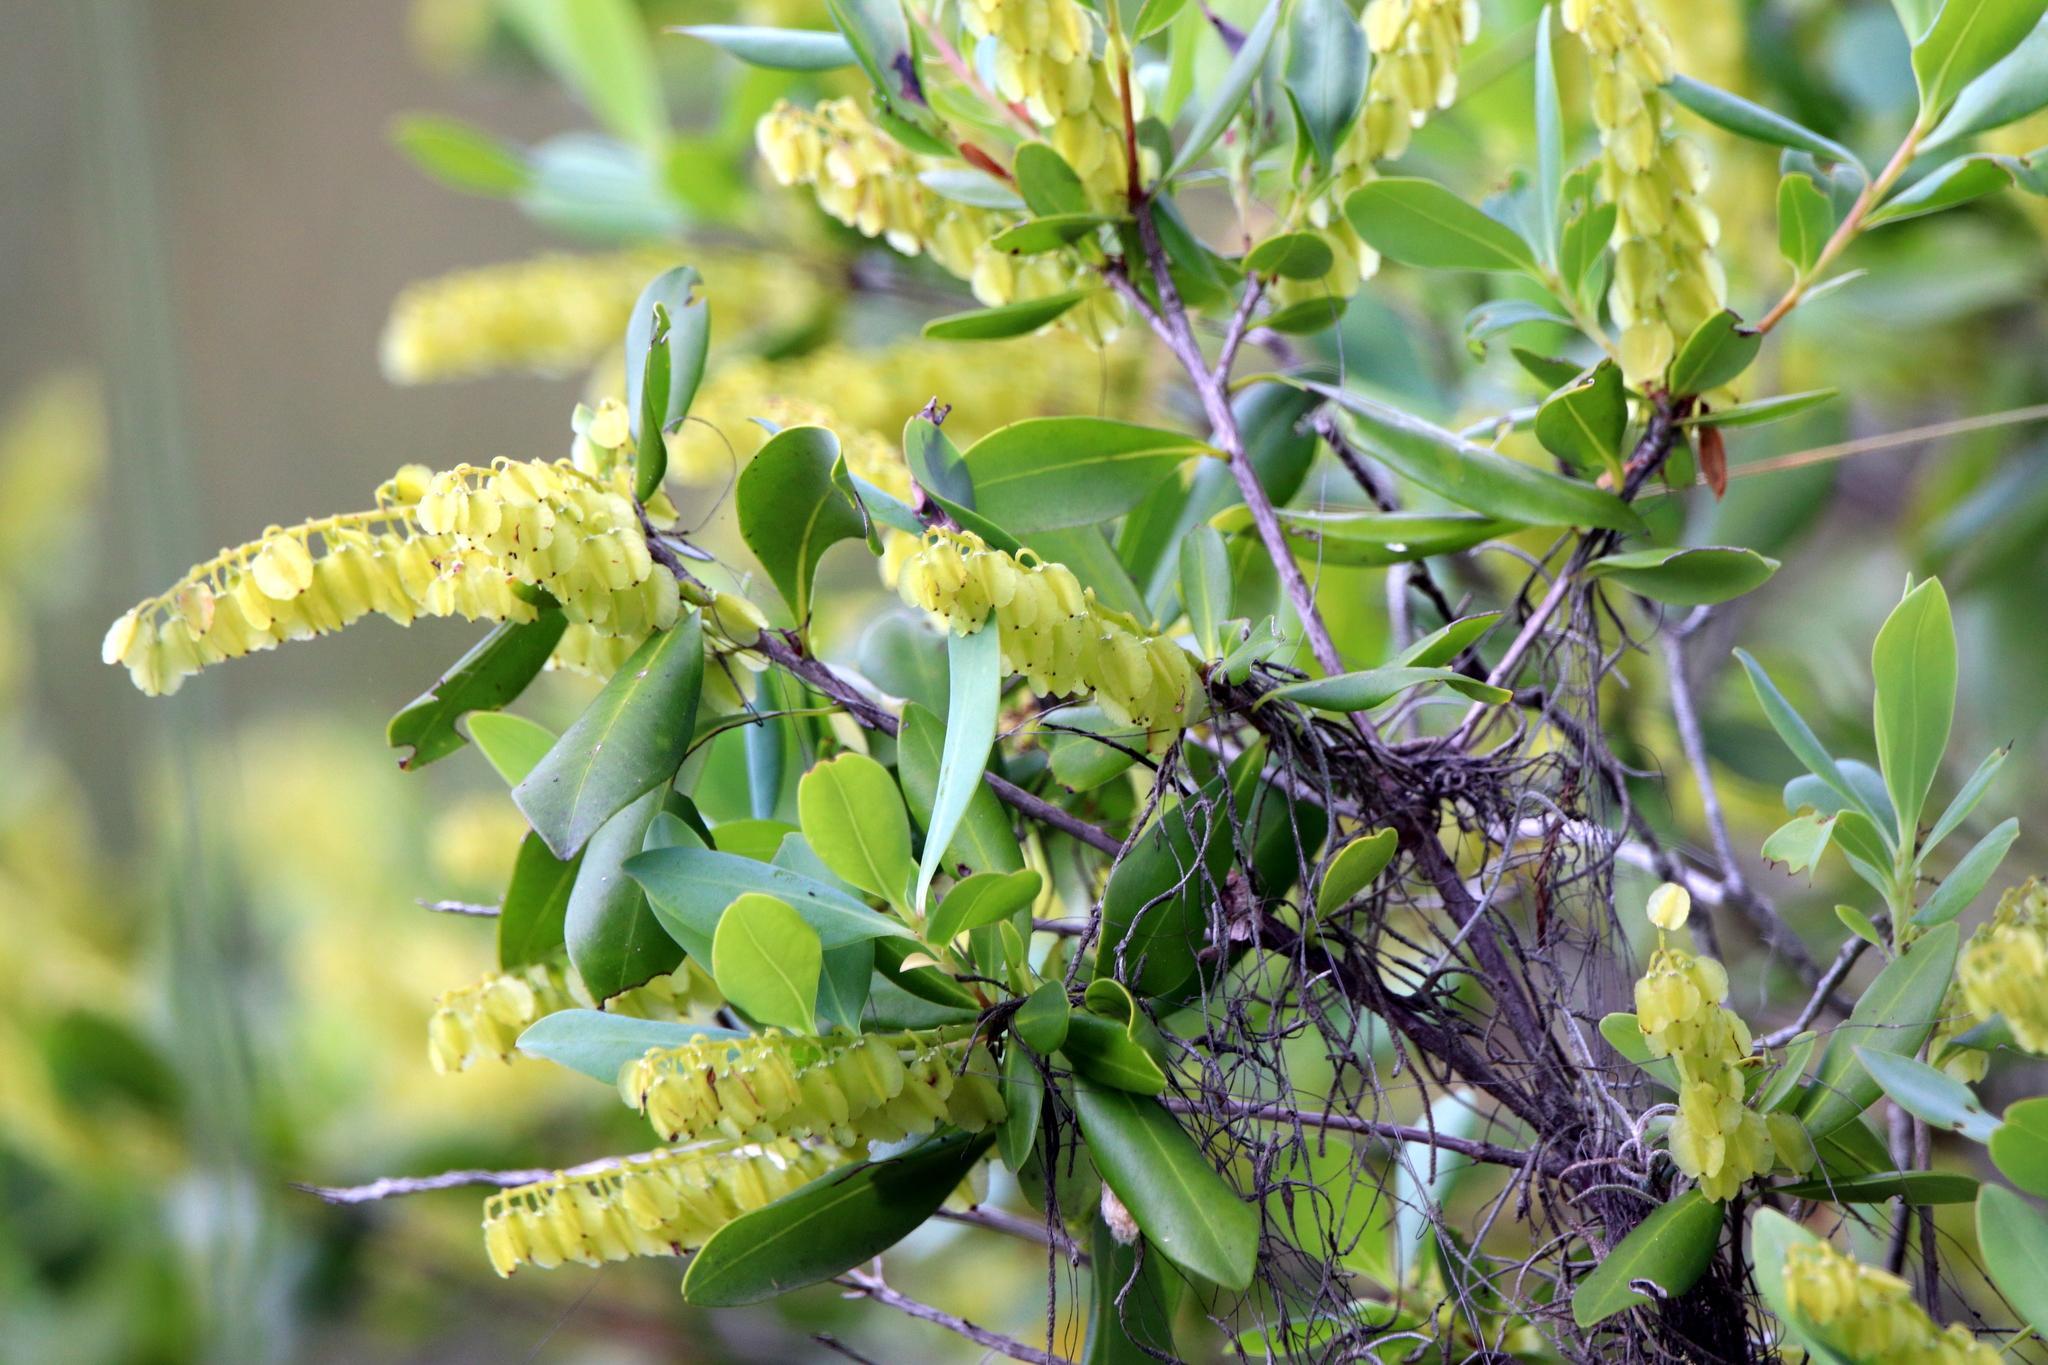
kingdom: Plantae
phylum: Tracheophyta
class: Magnoliopsida
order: Ericales
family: Cyrillaceae
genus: Cliftonia
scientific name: Cliftonia monophylla
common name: Titi
